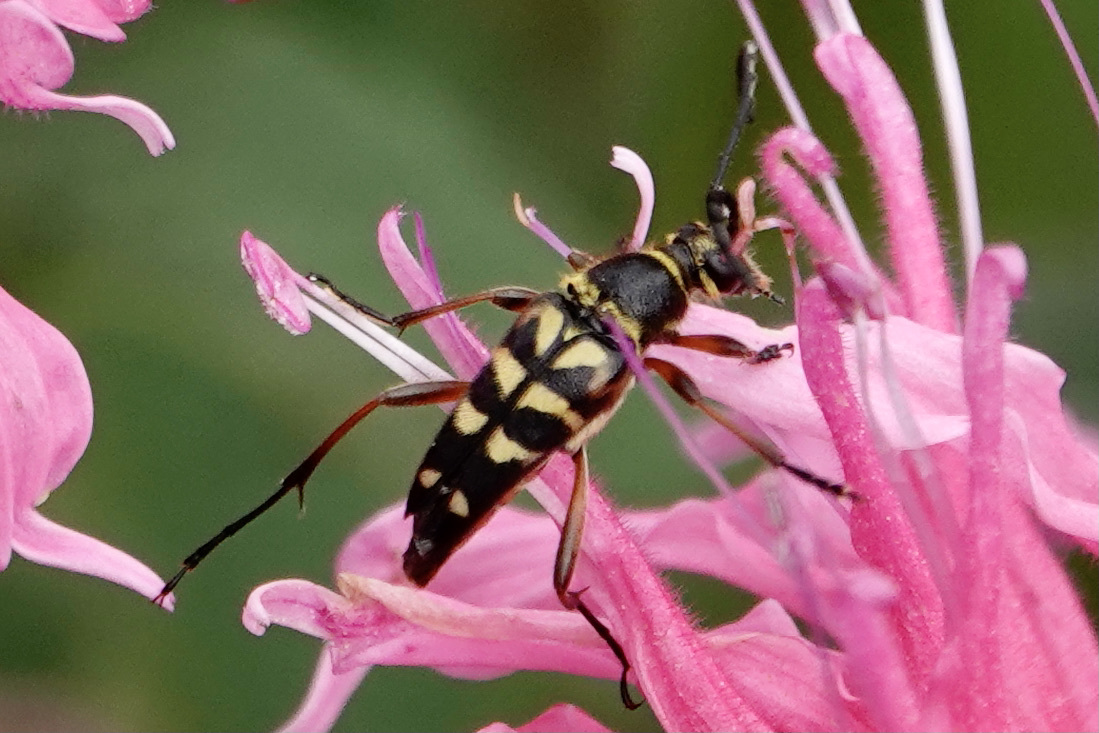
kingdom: Animalia
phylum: Arthropoda
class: Insecta
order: Coleoptera
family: Cerambycidae
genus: Typocerus
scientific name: Typocerus zebra
